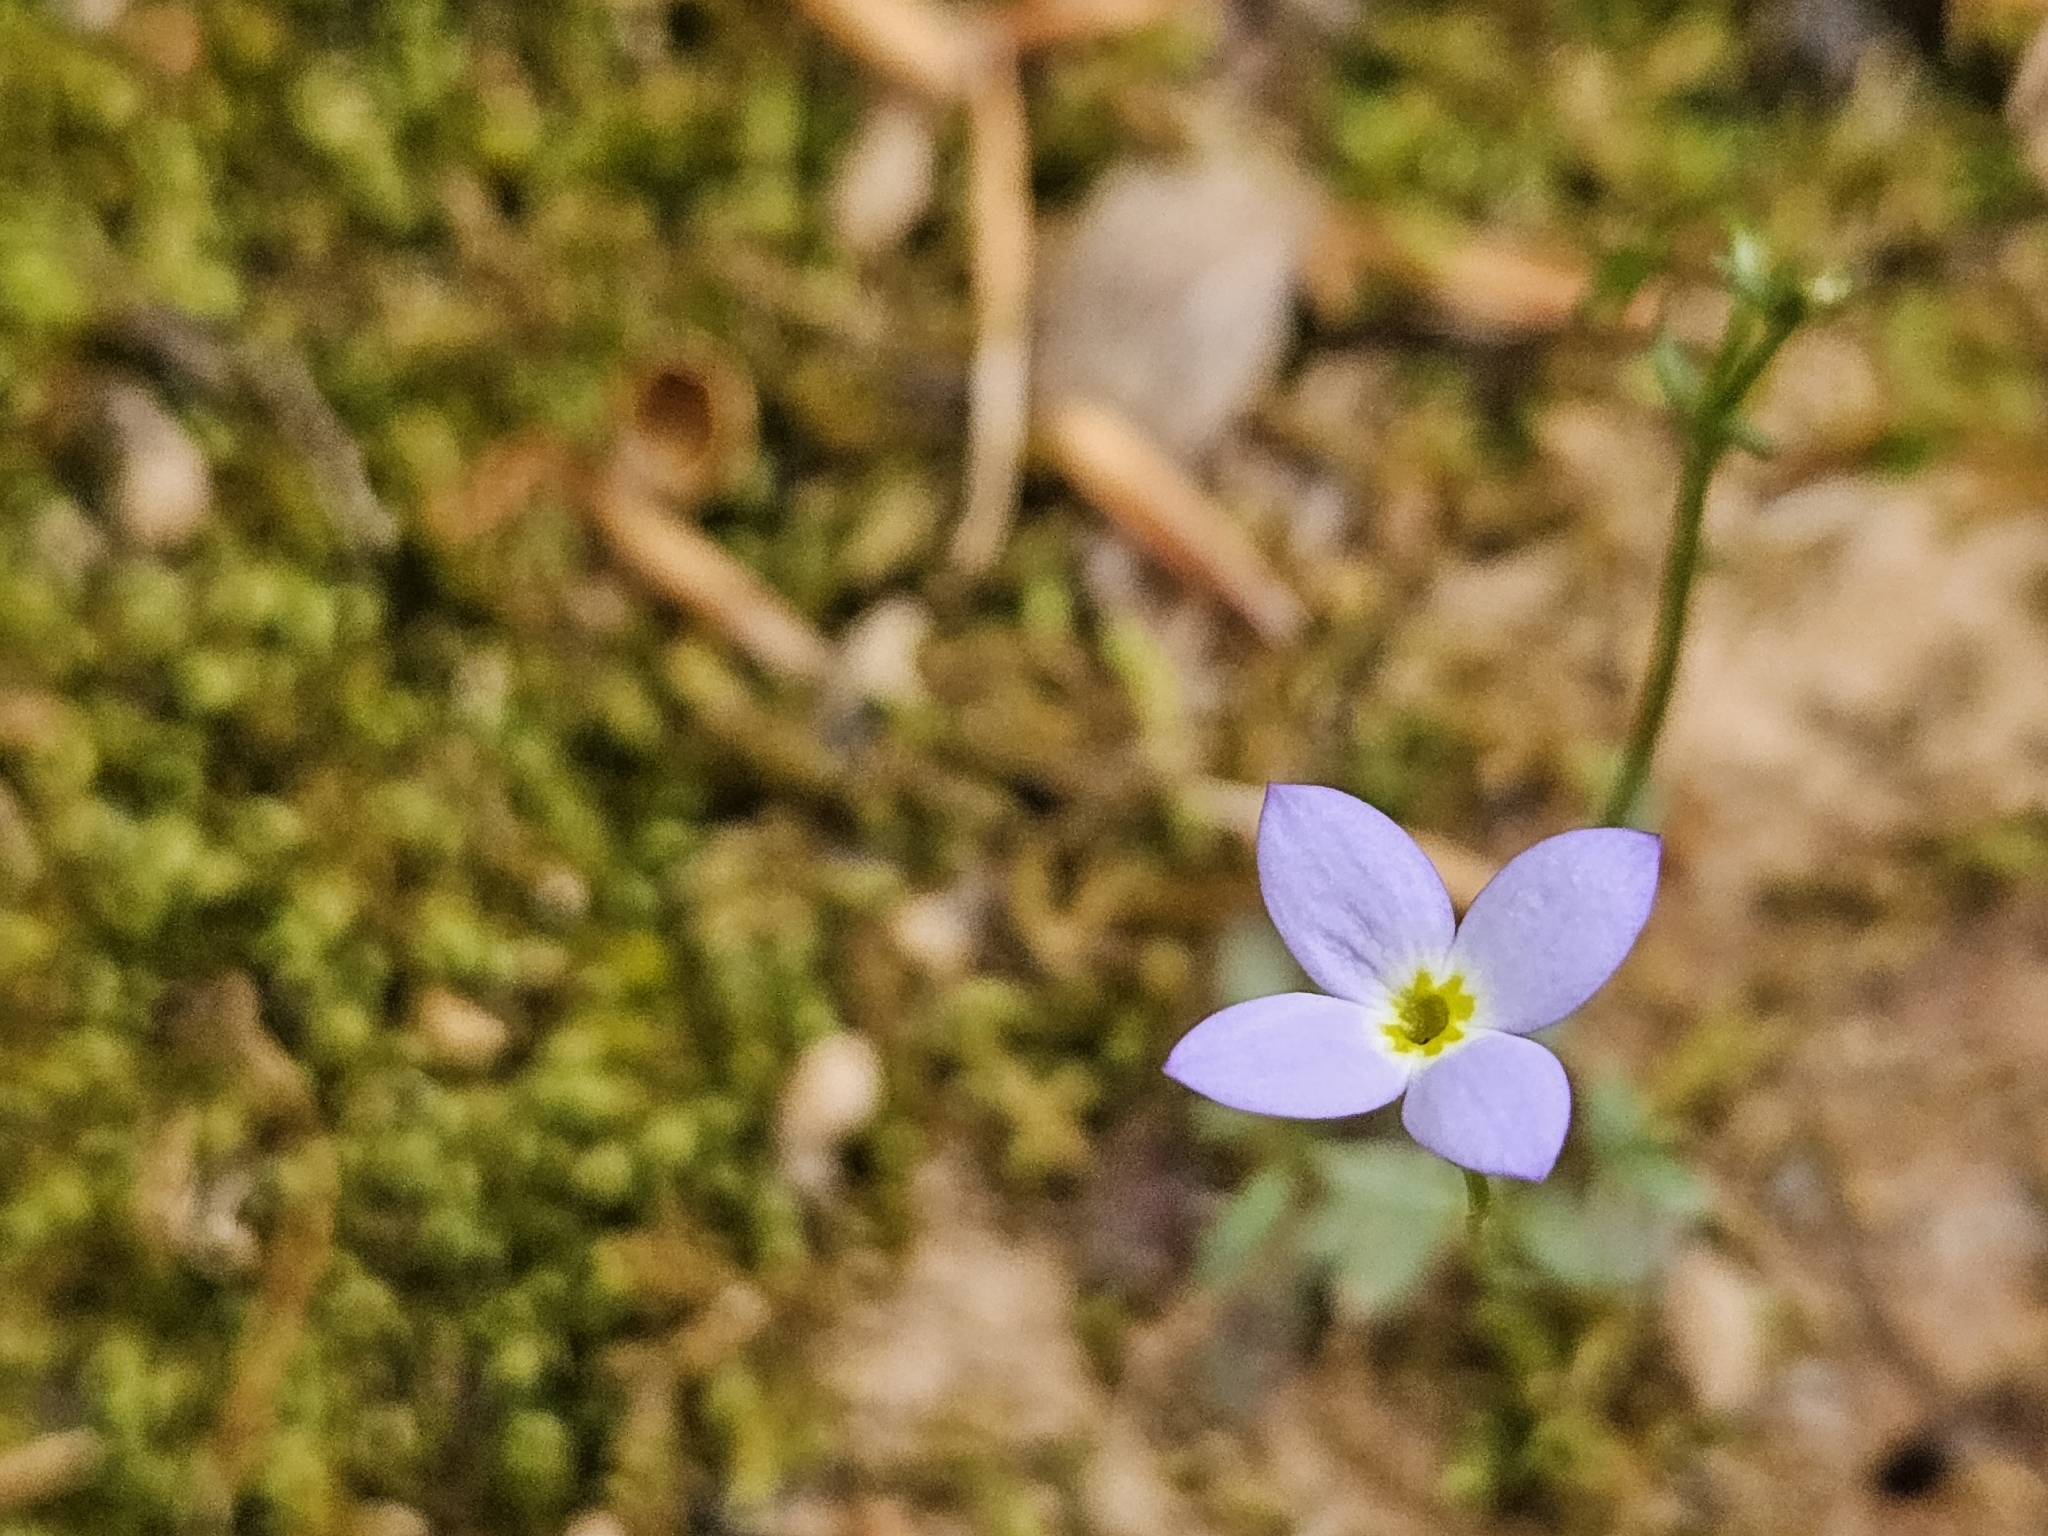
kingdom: Plantae
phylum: Tracheophyta
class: Magnoliopsida
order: Gentianales
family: Rubiaceae
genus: Houstonia
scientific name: Houstonia caerulea
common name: Bluets
